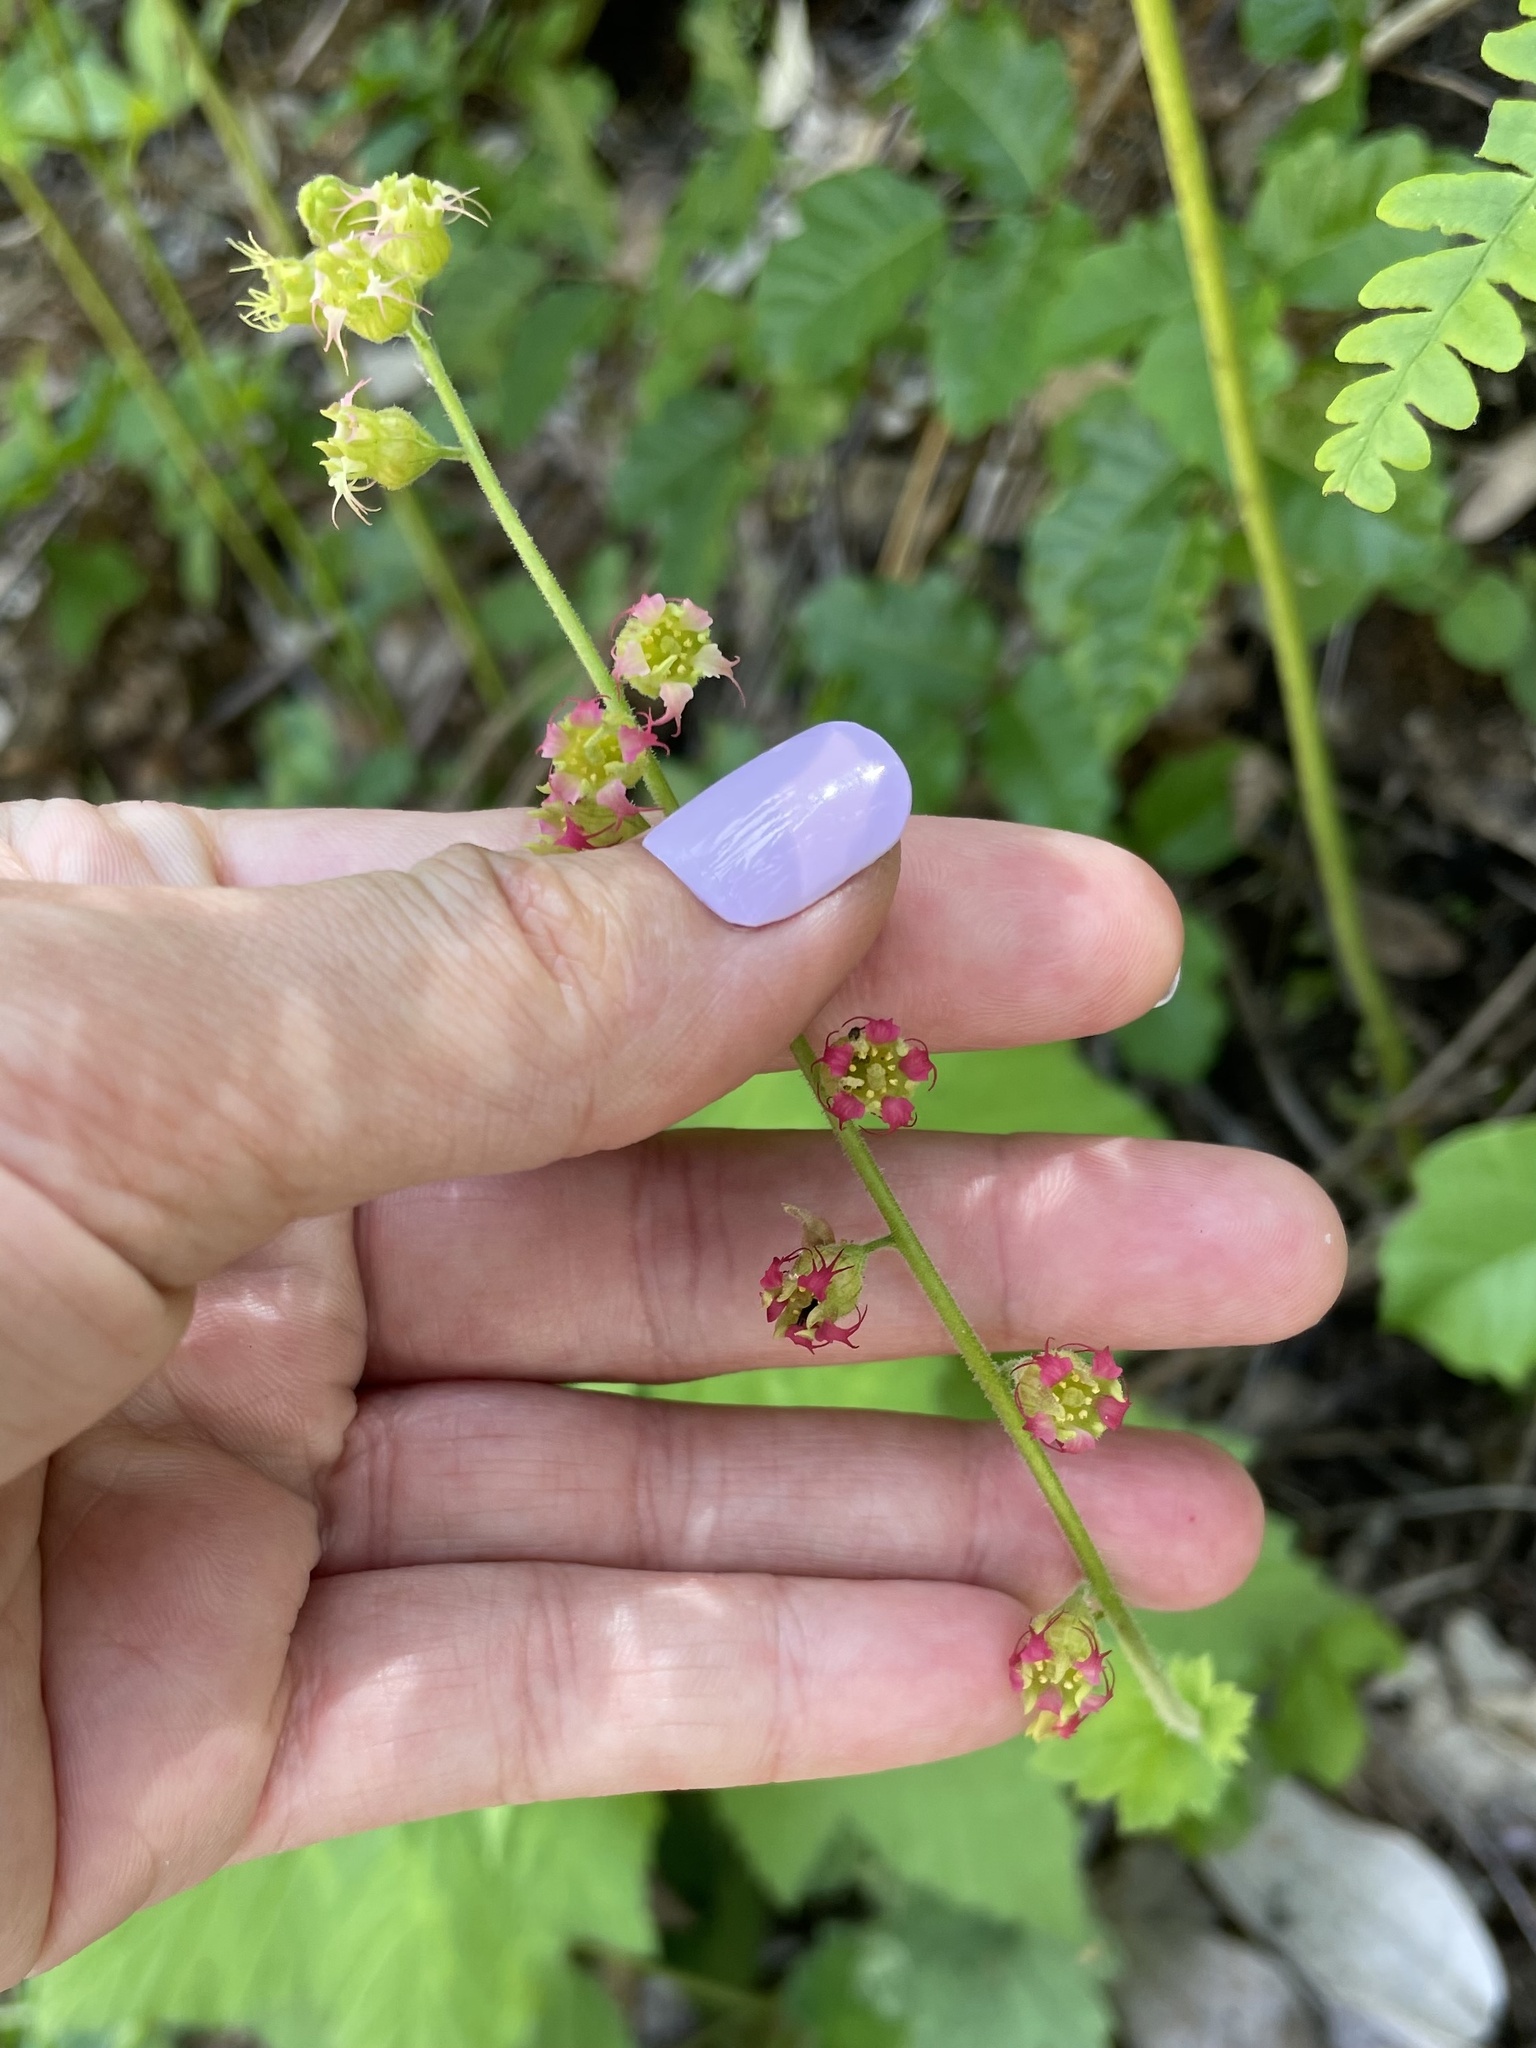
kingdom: Plantae
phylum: Tracheophyta
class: Magnoliopsida
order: Saxifragales
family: Saxifragaceae
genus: Tellima
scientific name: Tellima grandiflora
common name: Fringecups
